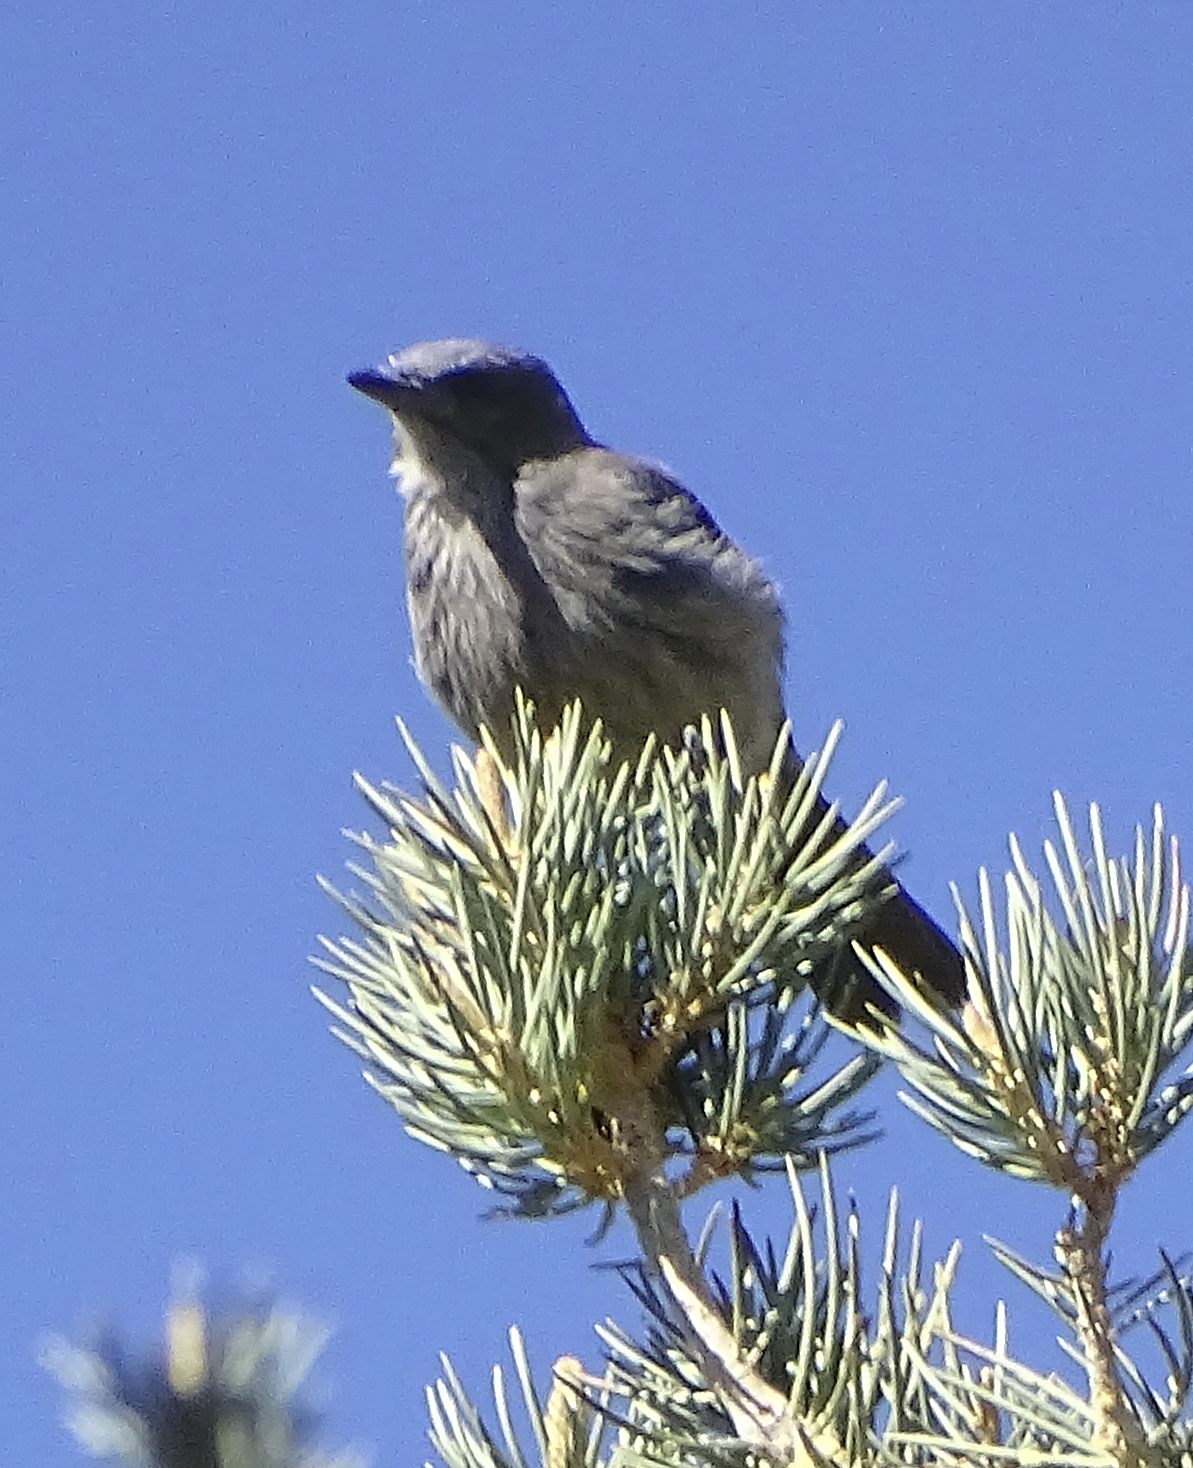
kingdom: Animalia
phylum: Chordata
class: Aves
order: Passeriformes
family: Corvidae
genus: Aphelocoma
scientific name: Aphelocoma woodhouseii
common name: Woodhouse's scrub-jay
